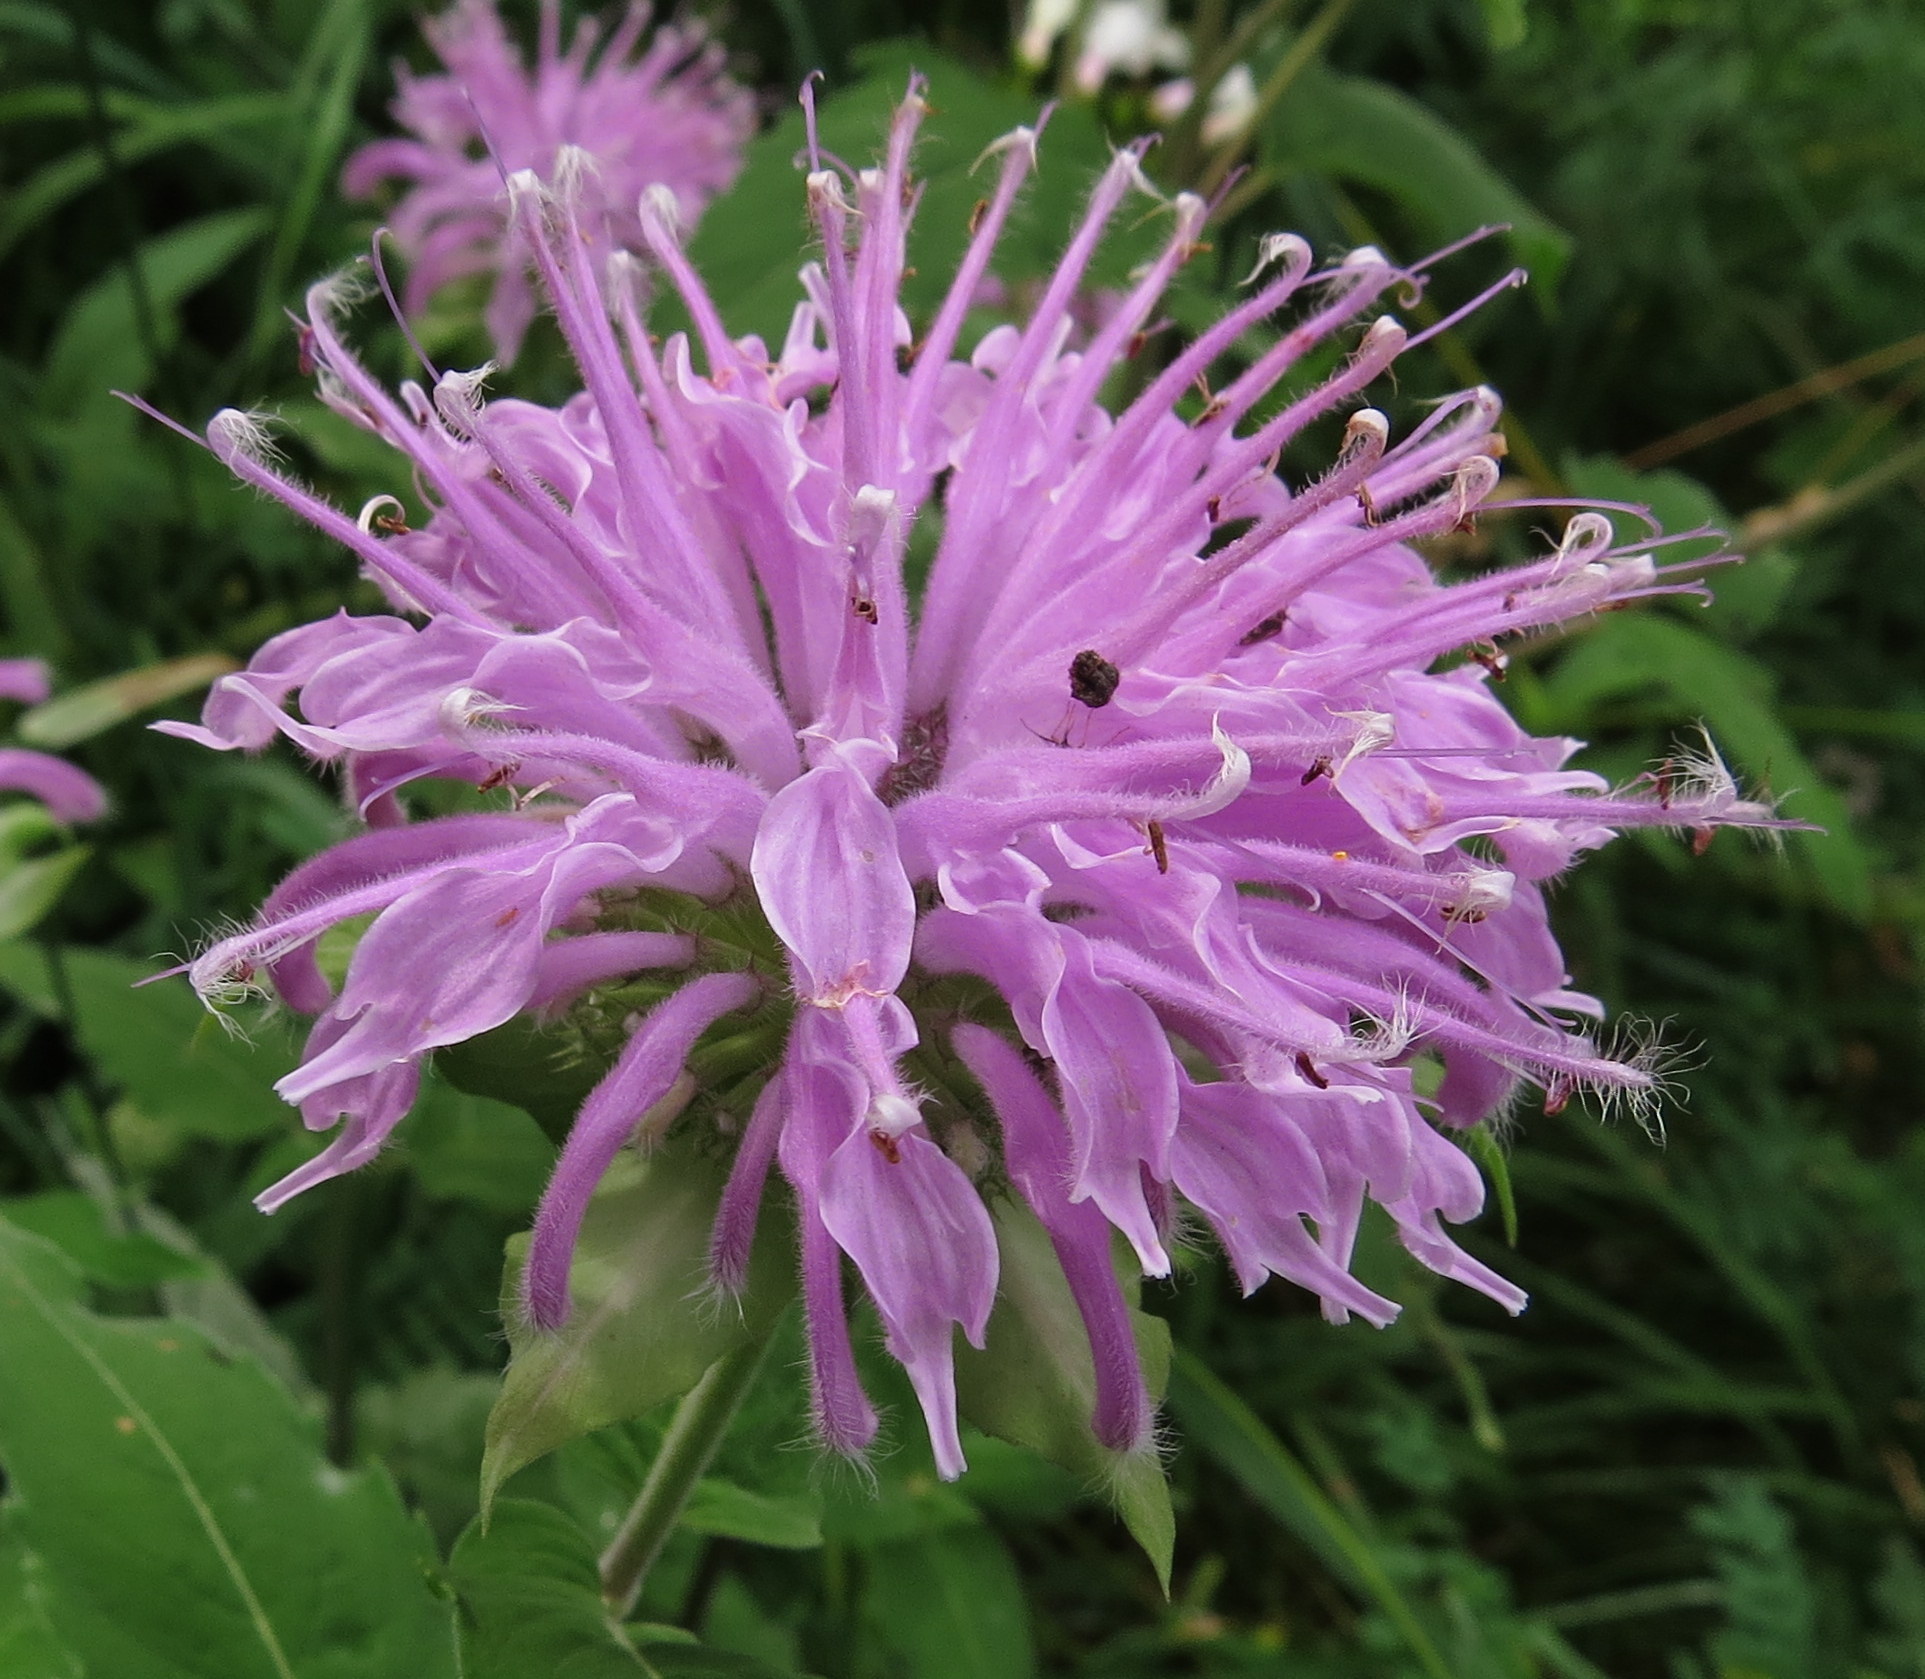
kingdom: Plantae
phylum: Tracheophyta
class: Magnoliopsida
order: Lamiales
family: Lamiaceae
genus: Monarda
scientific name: Monarda fistulosa
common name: Purple beebalm
